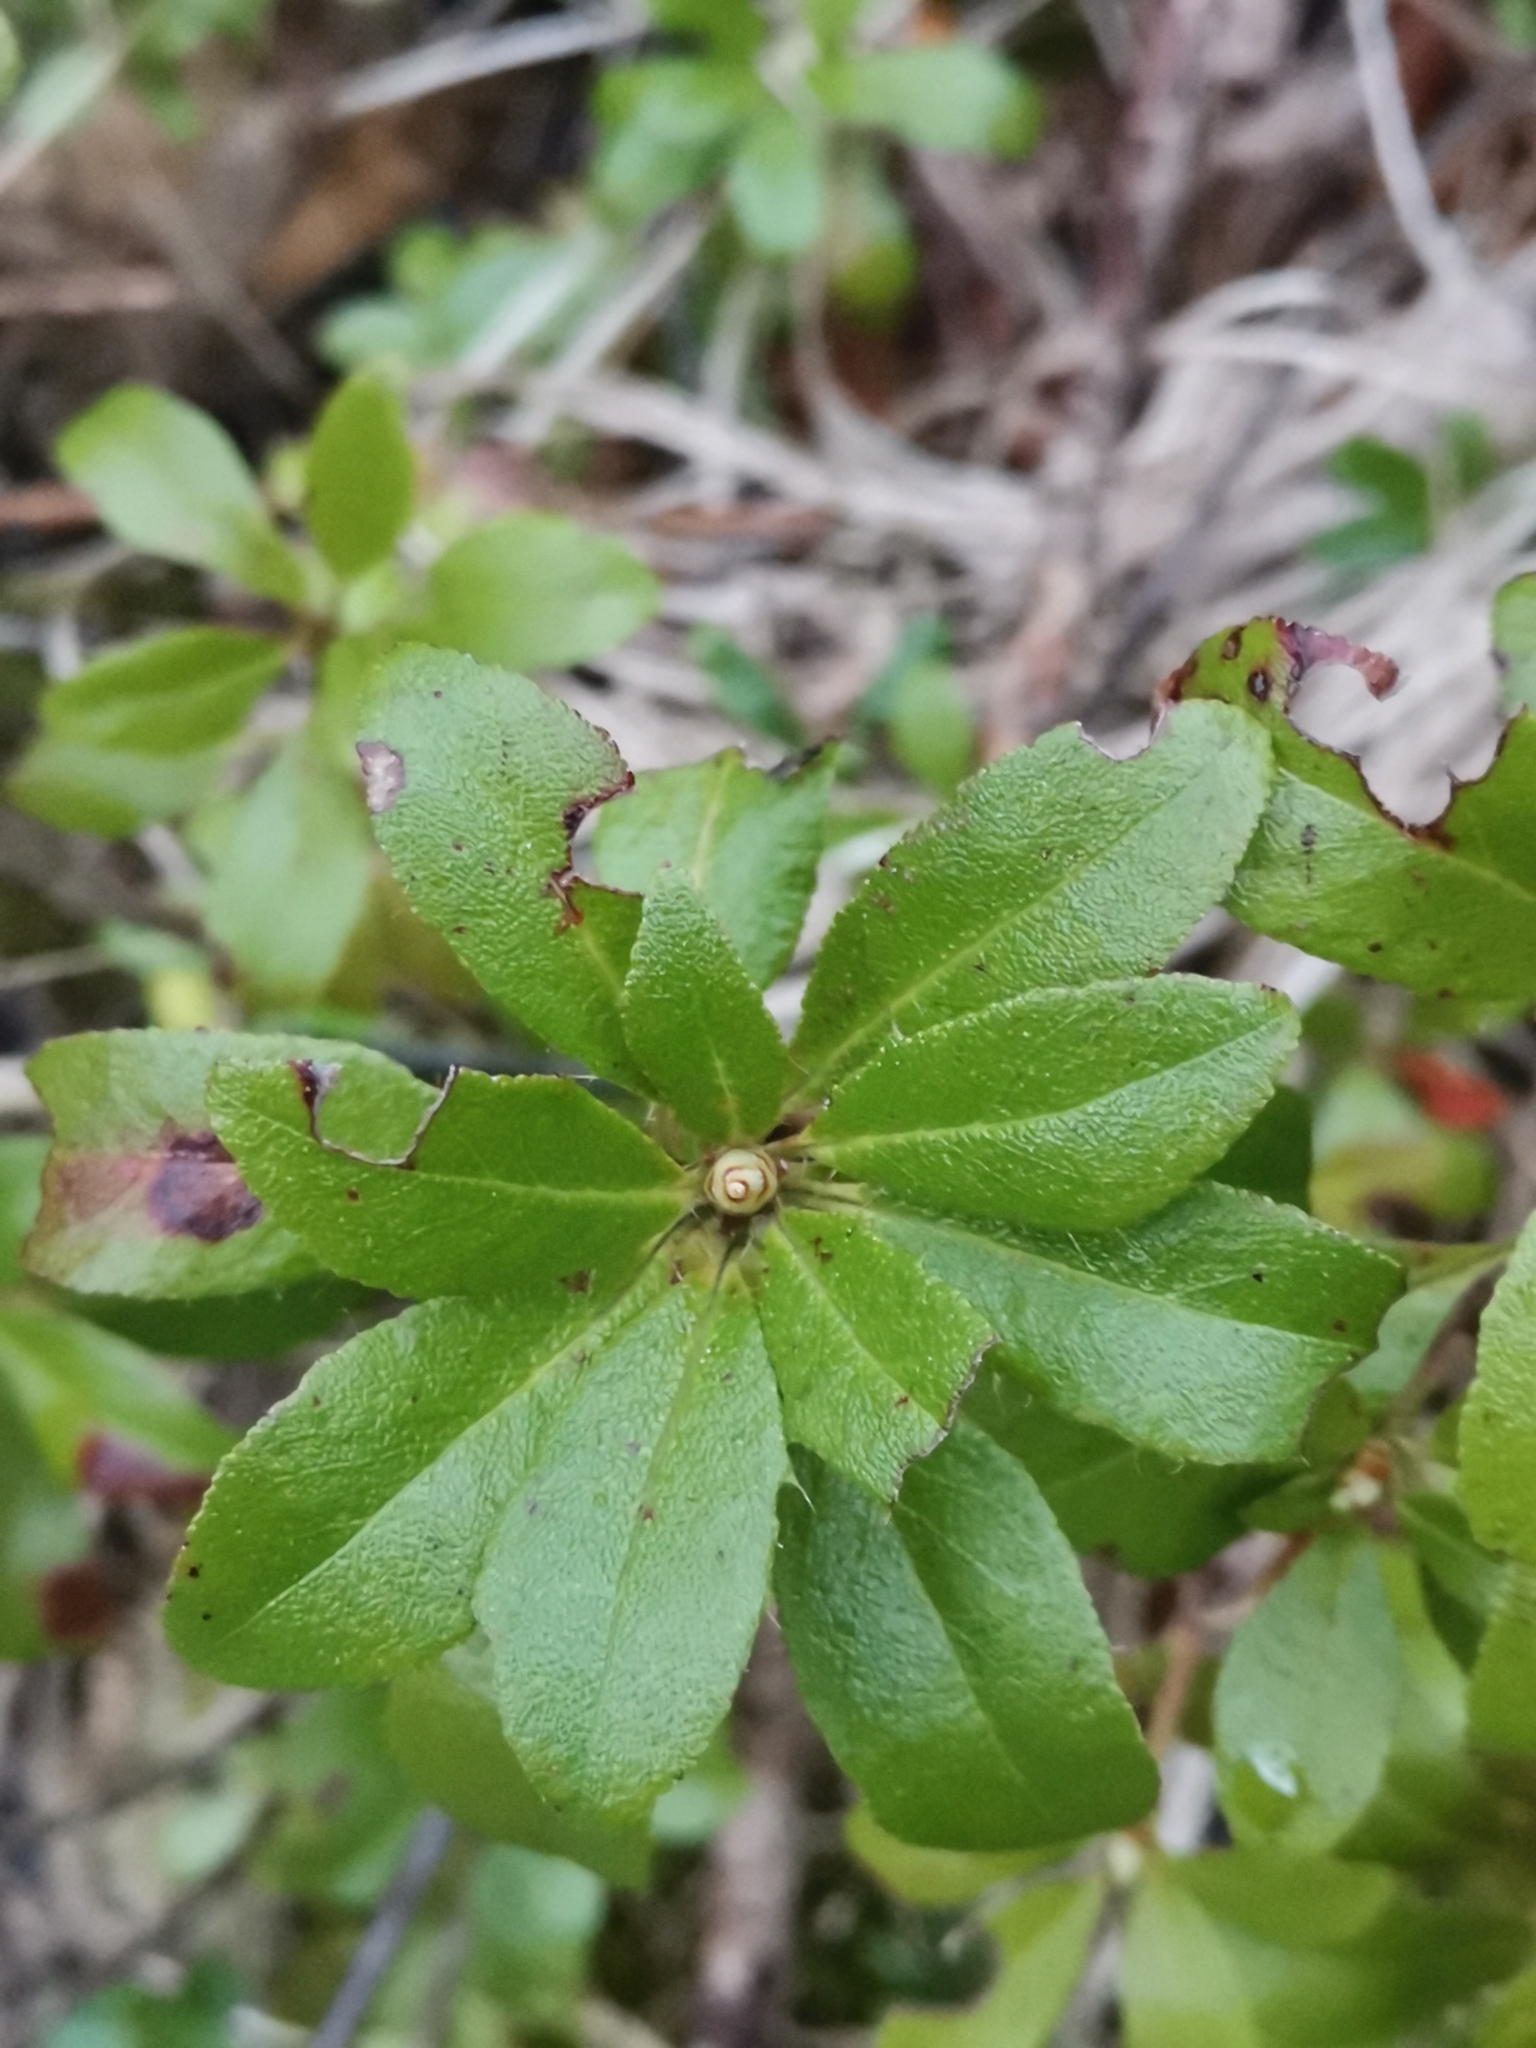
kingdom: Plantae
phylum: Tracheophyta
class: Magnoliopsida
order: Ericales
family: Ericaceae
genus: Rhododendron
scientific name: Rhododendron hirsutum
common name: Hairy alpenrose
